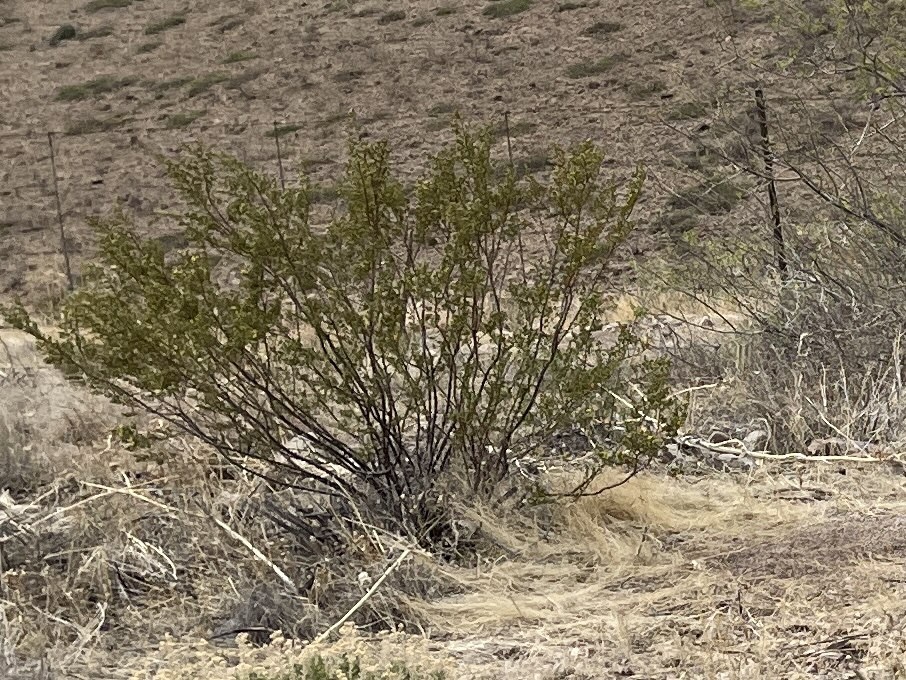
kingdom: Plantae
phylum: Tracheophyta
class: Magnoliopsida
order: Zygophyllales
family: Zygophyllaceae
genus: Larrea
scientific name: Larrea tridentata
